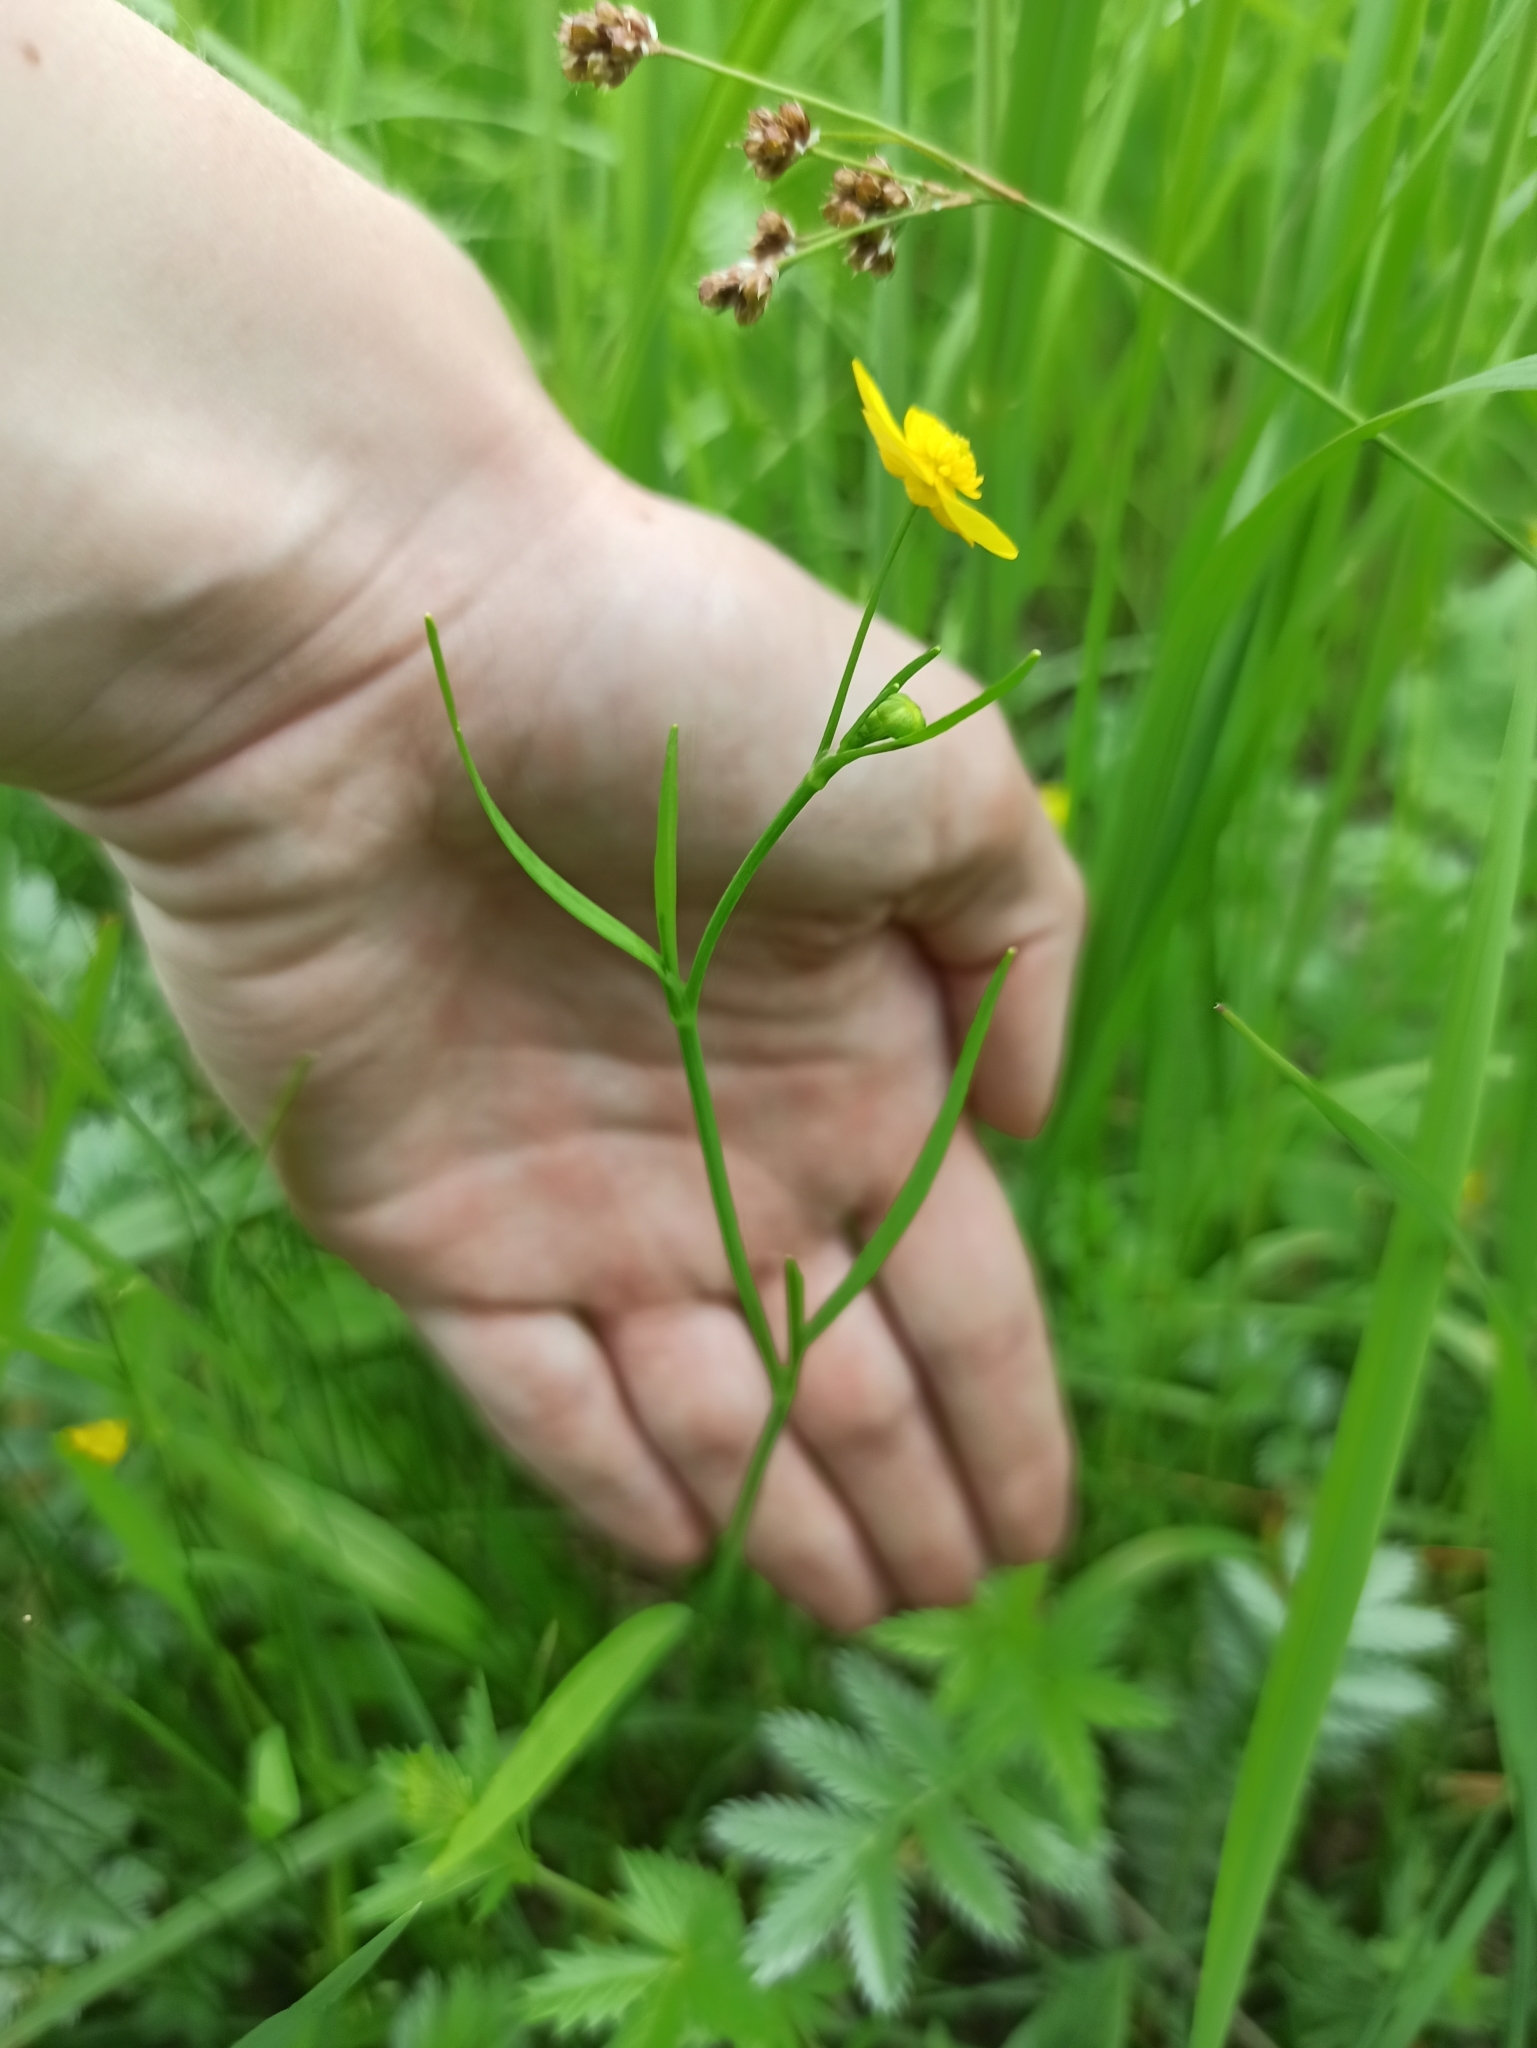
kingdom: Plantae
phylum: Tracheophyta
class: Magnoliopsida
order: Ranunculales
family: Ranunculaceae
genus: Ranunculus
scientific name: Ranunculus acris
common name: Meadow buttercup
